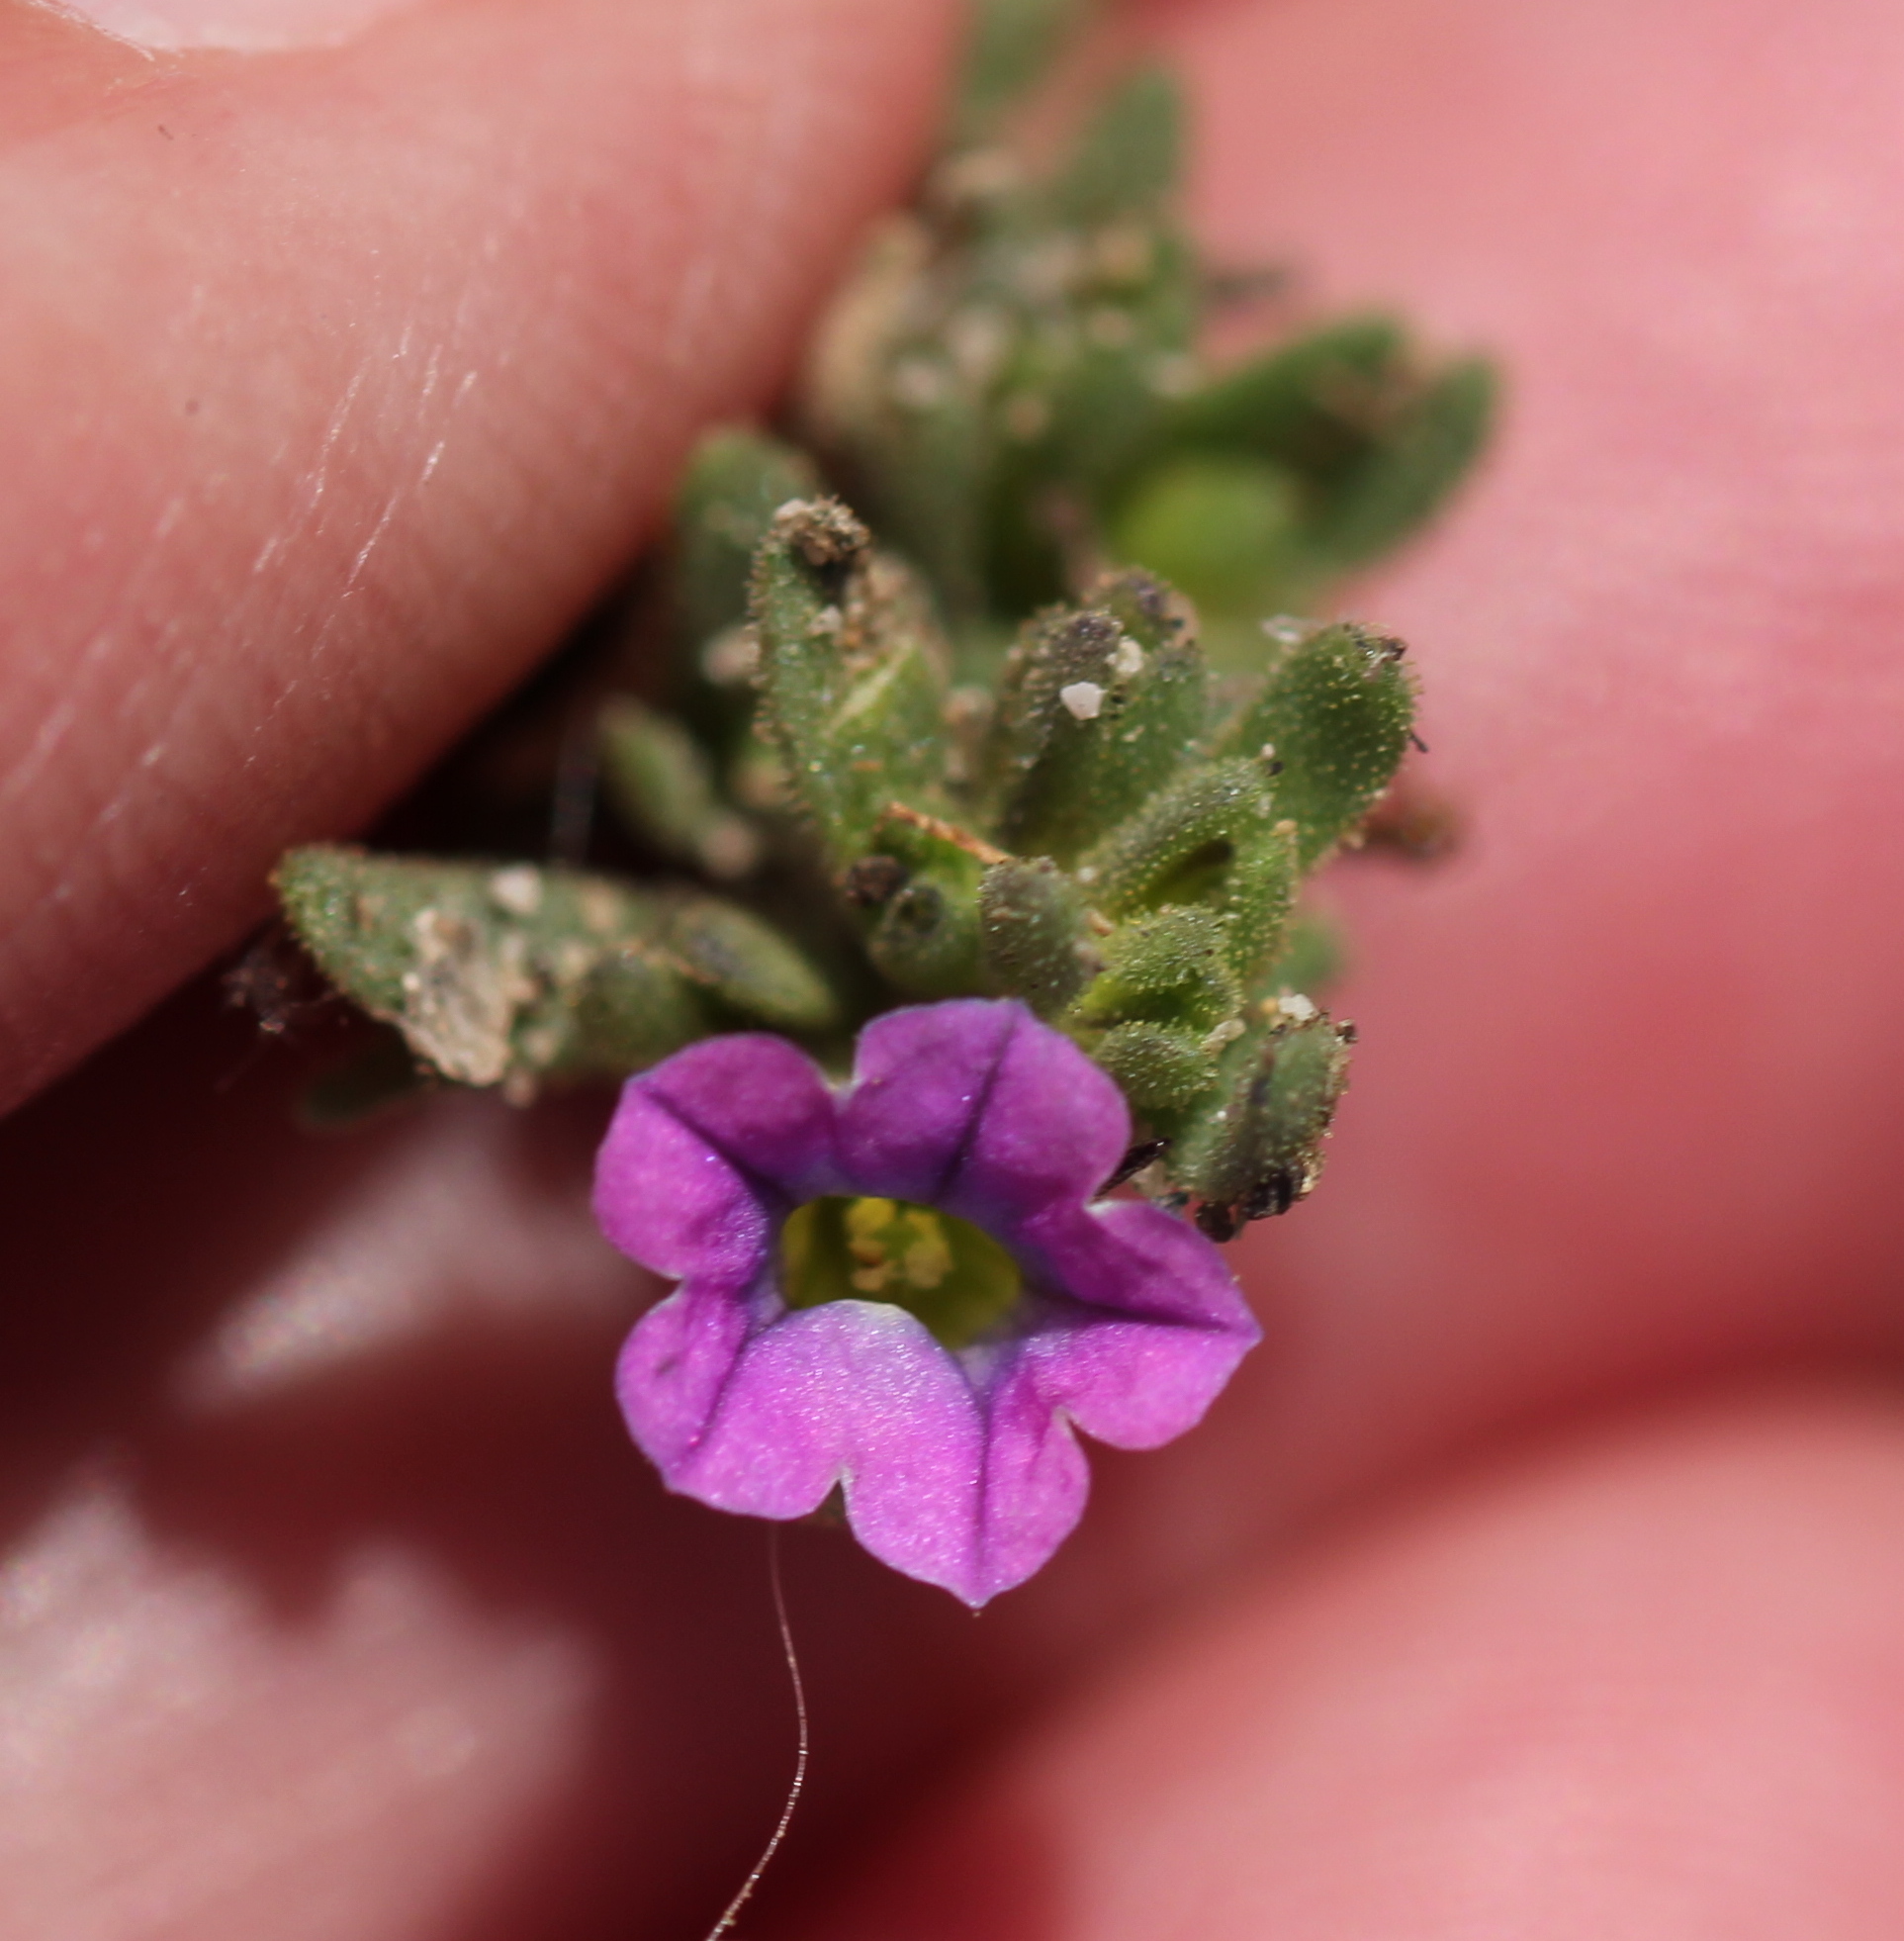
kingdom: Plantae
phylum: Tracheophyta
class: Magnoliopsida
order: Solanales
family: Solanaceae
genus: Calibrachoa
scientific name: Calibrachoa parviflora
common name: Seaside petunia
